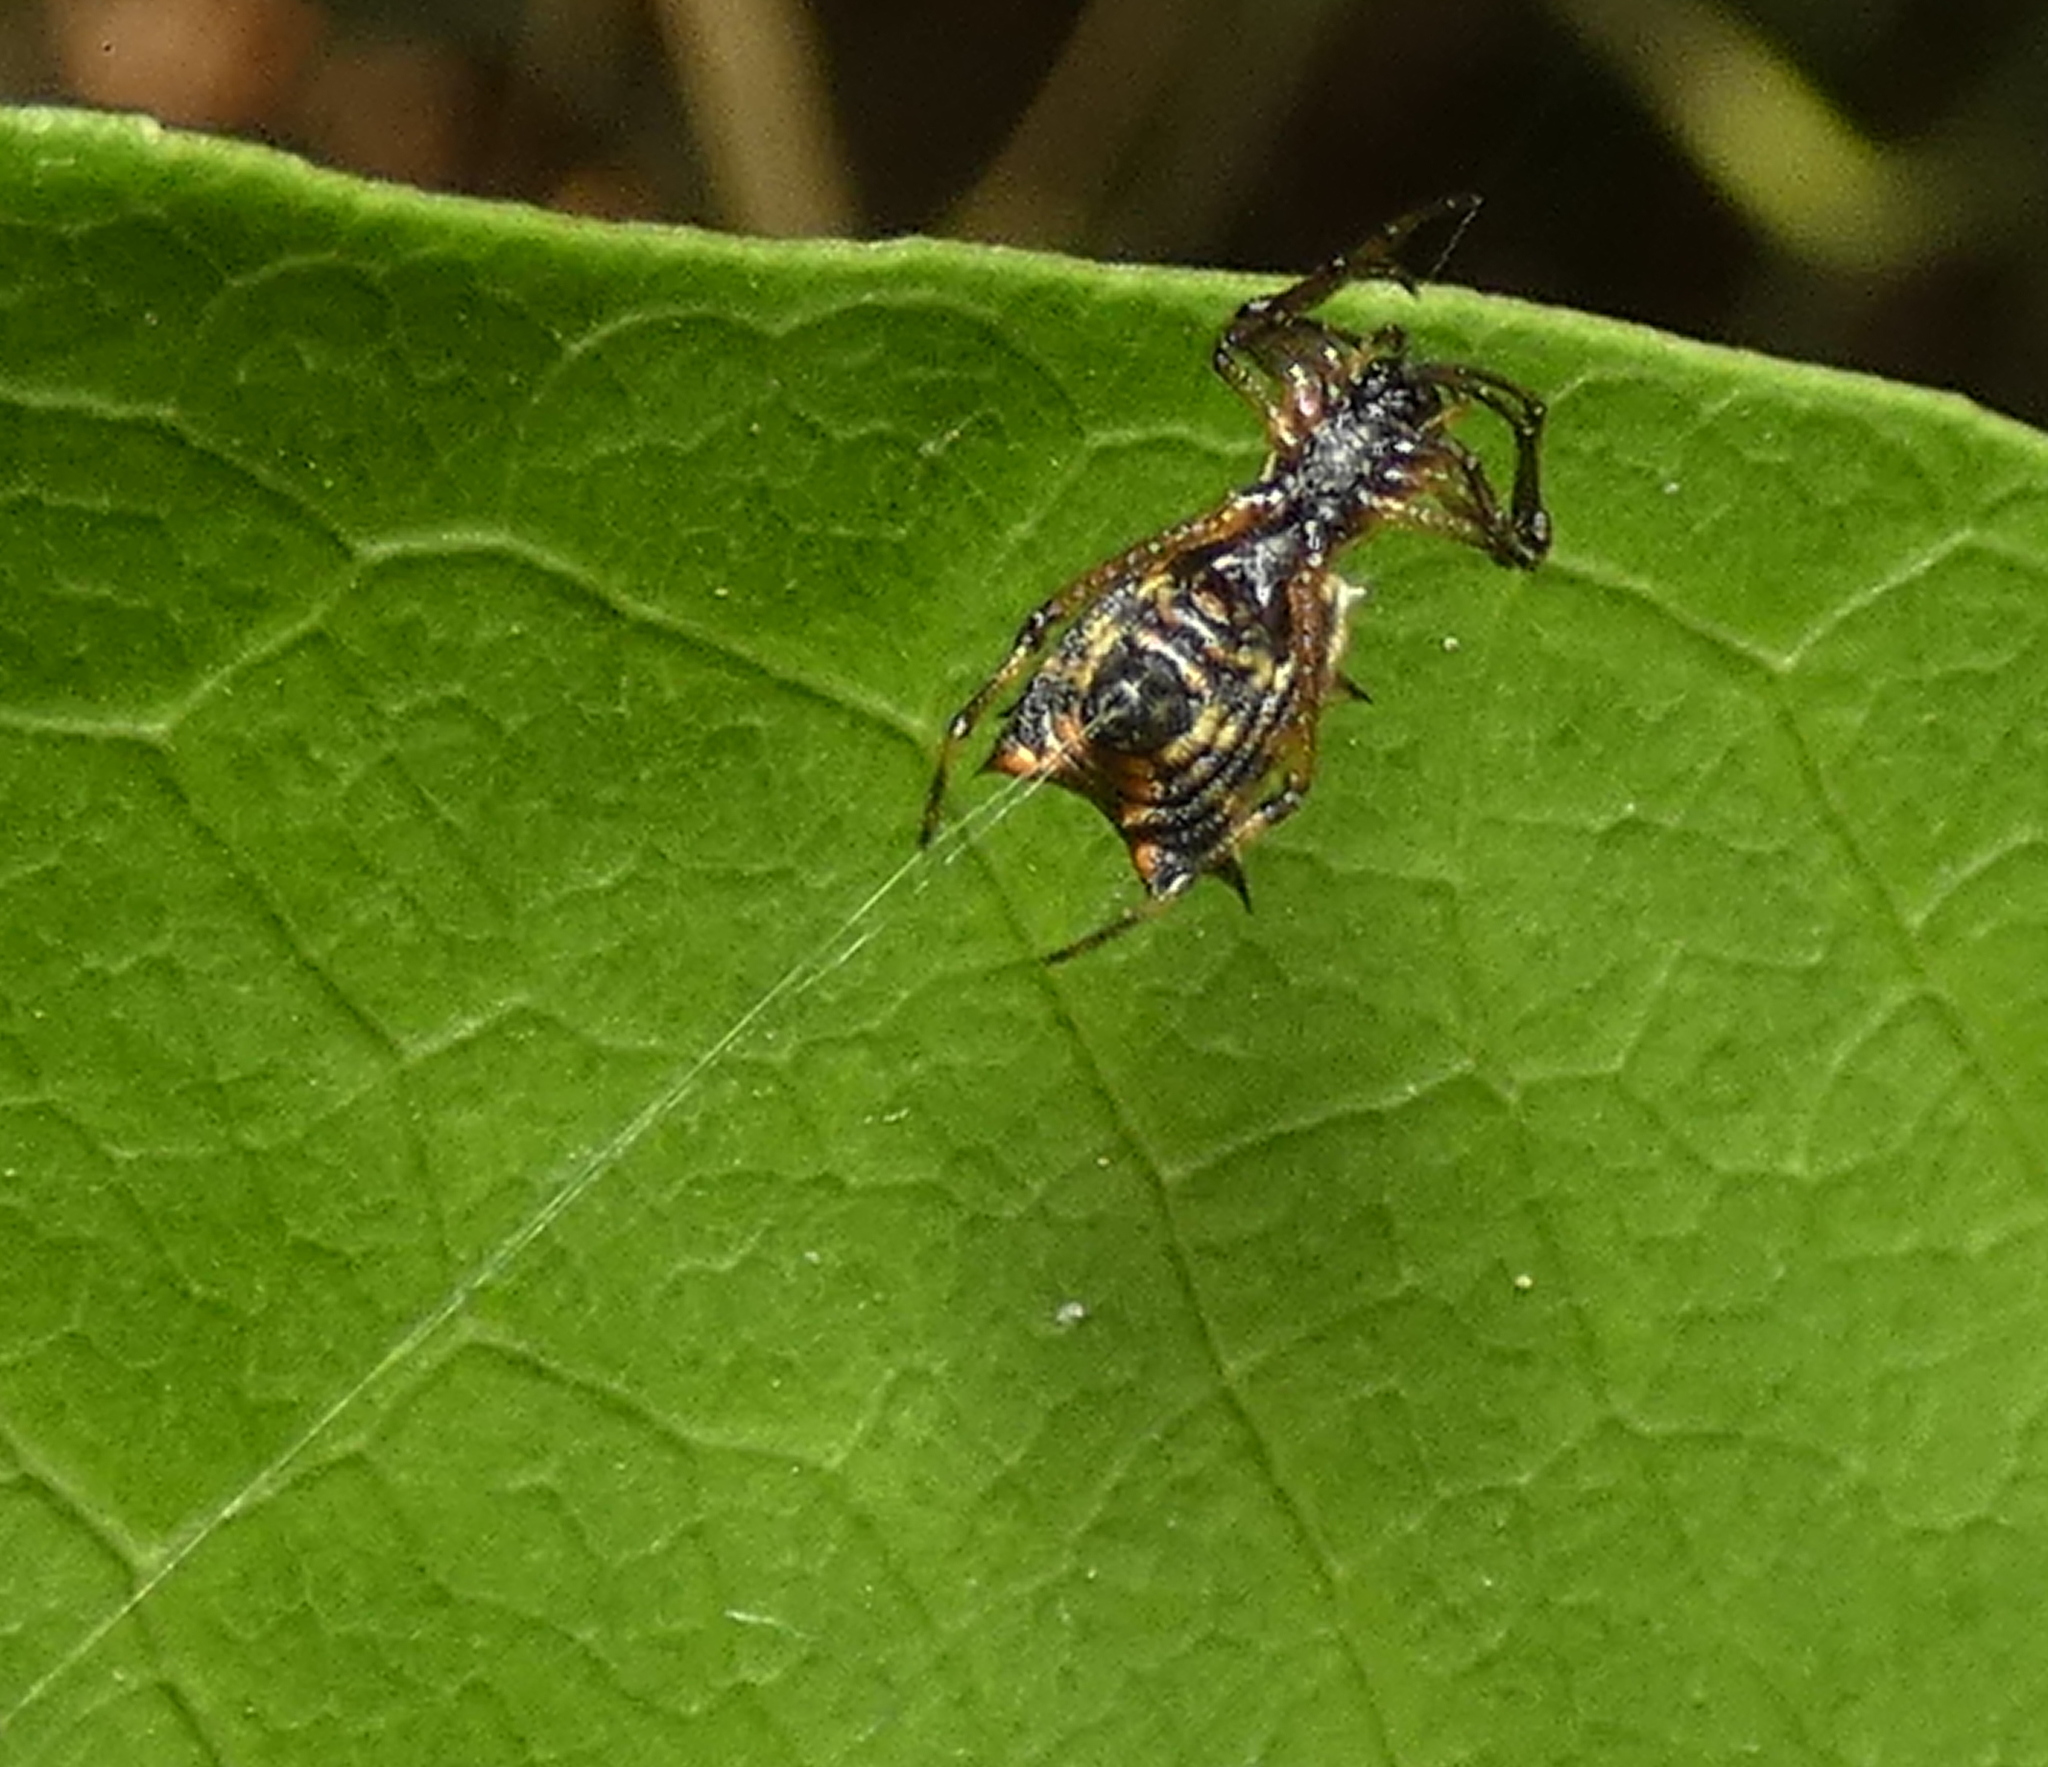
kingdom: Animalia
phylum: Arthropoda
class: Arachnida
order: Araneae
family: Araneidae
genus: Micrathena
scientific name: Micrathena picta
